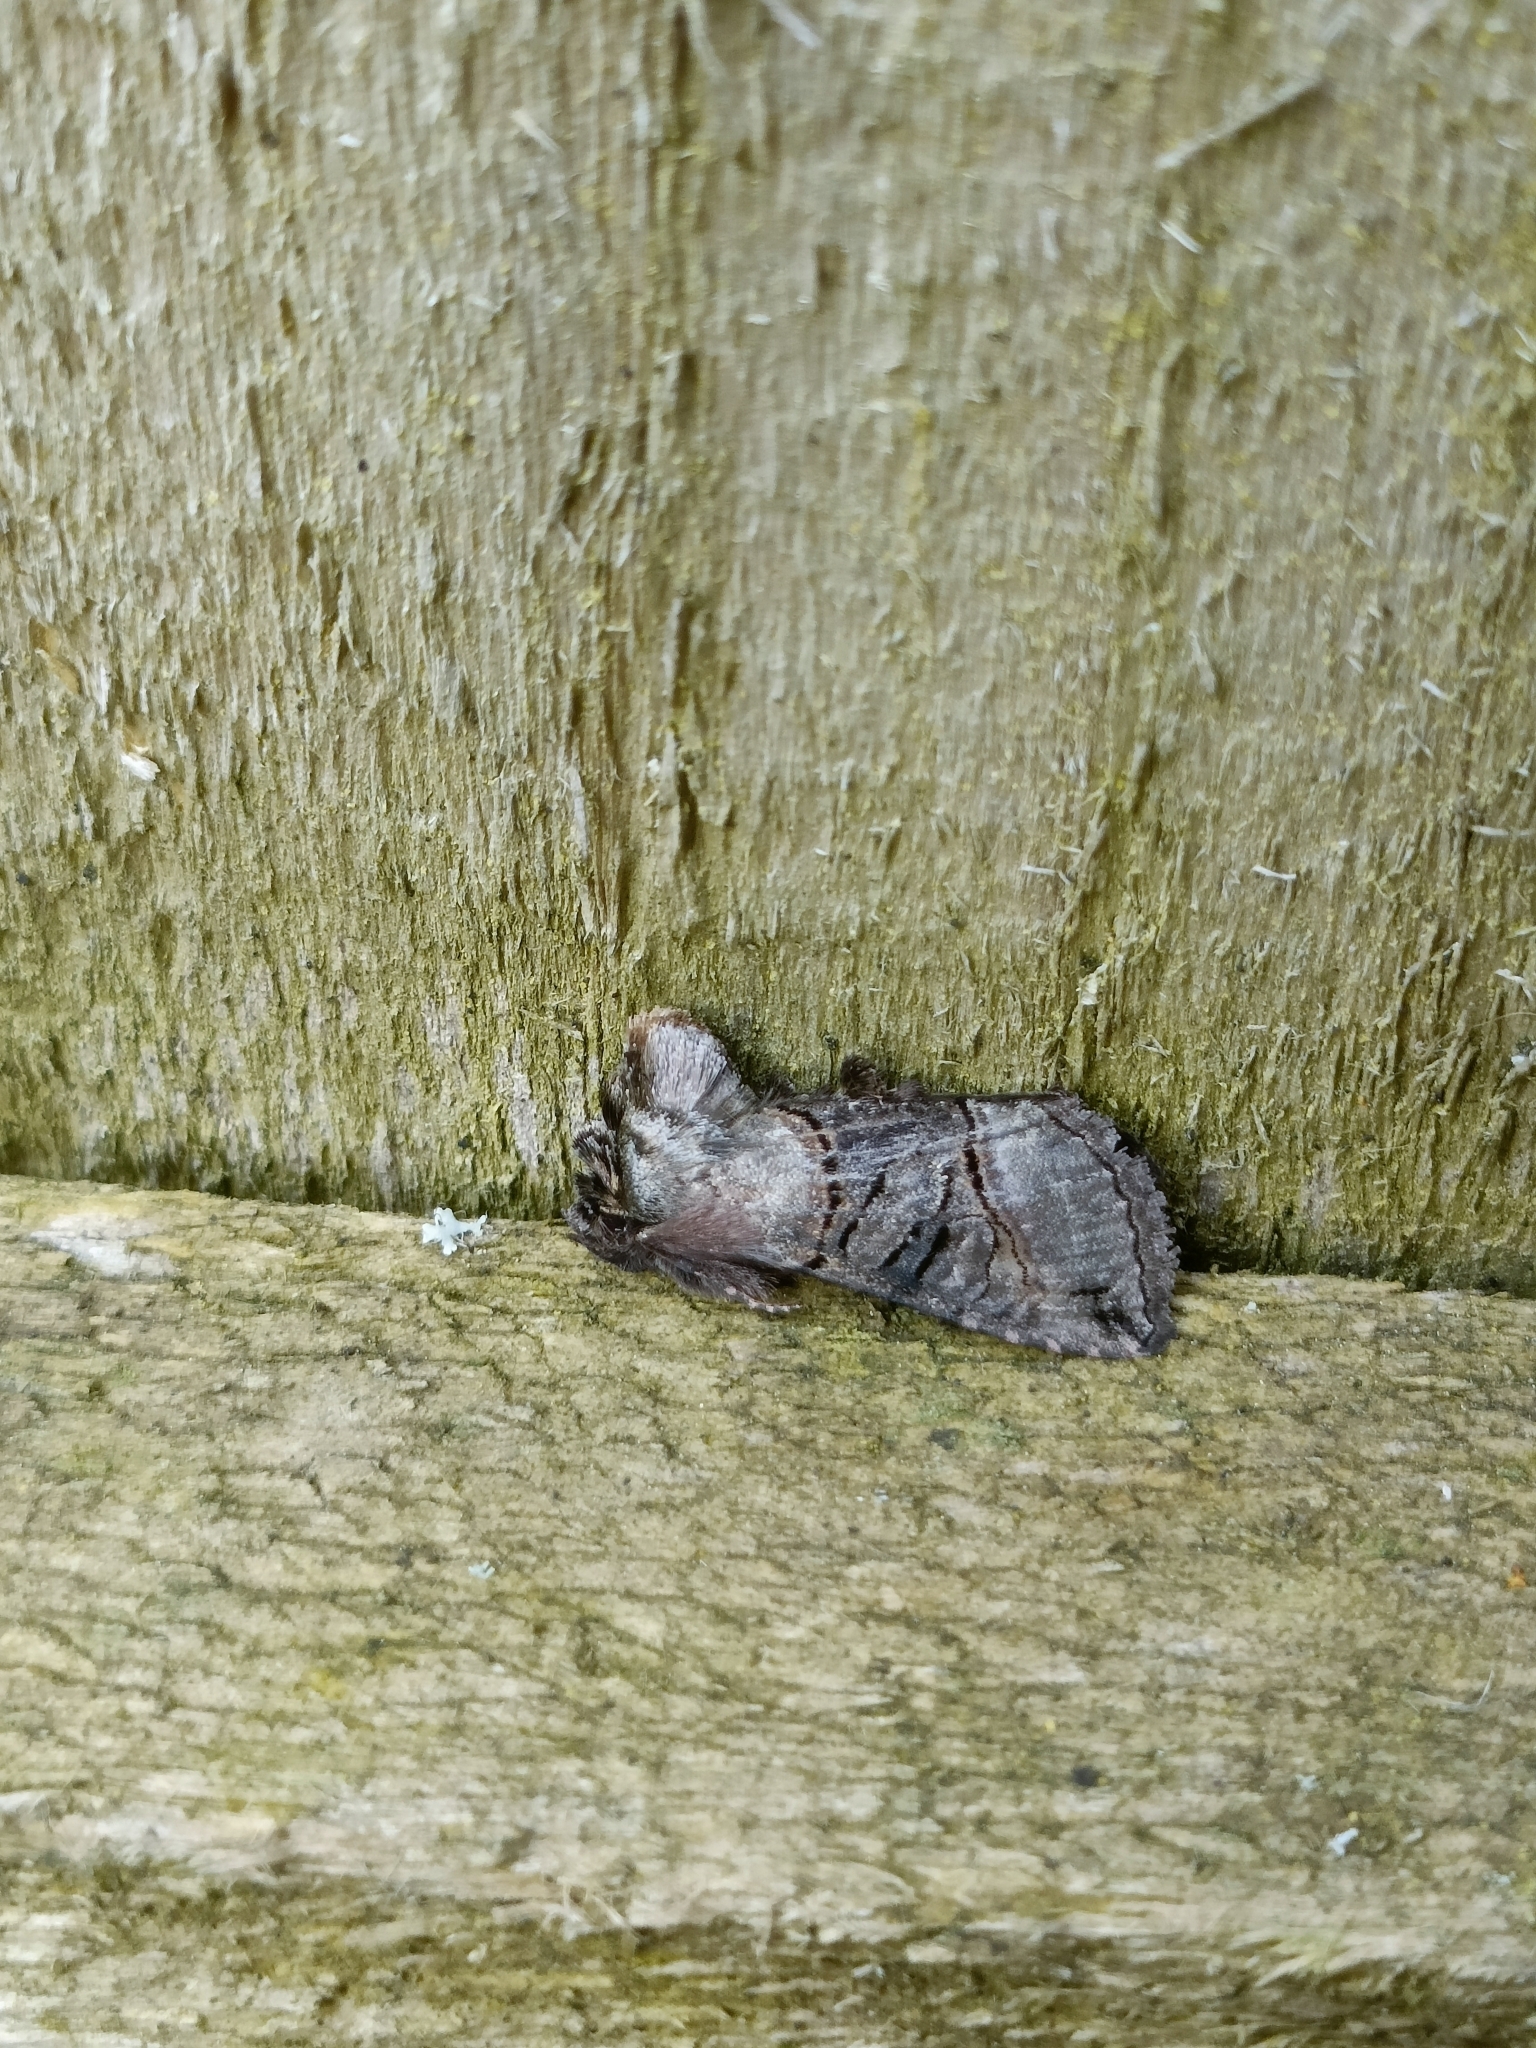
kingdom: Animalia
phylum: Arthropoda
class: Insecta
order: Lepidoptera
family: Noctuidae
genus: Abrostola
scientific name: Abrostola tripartita
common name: Spectacle
